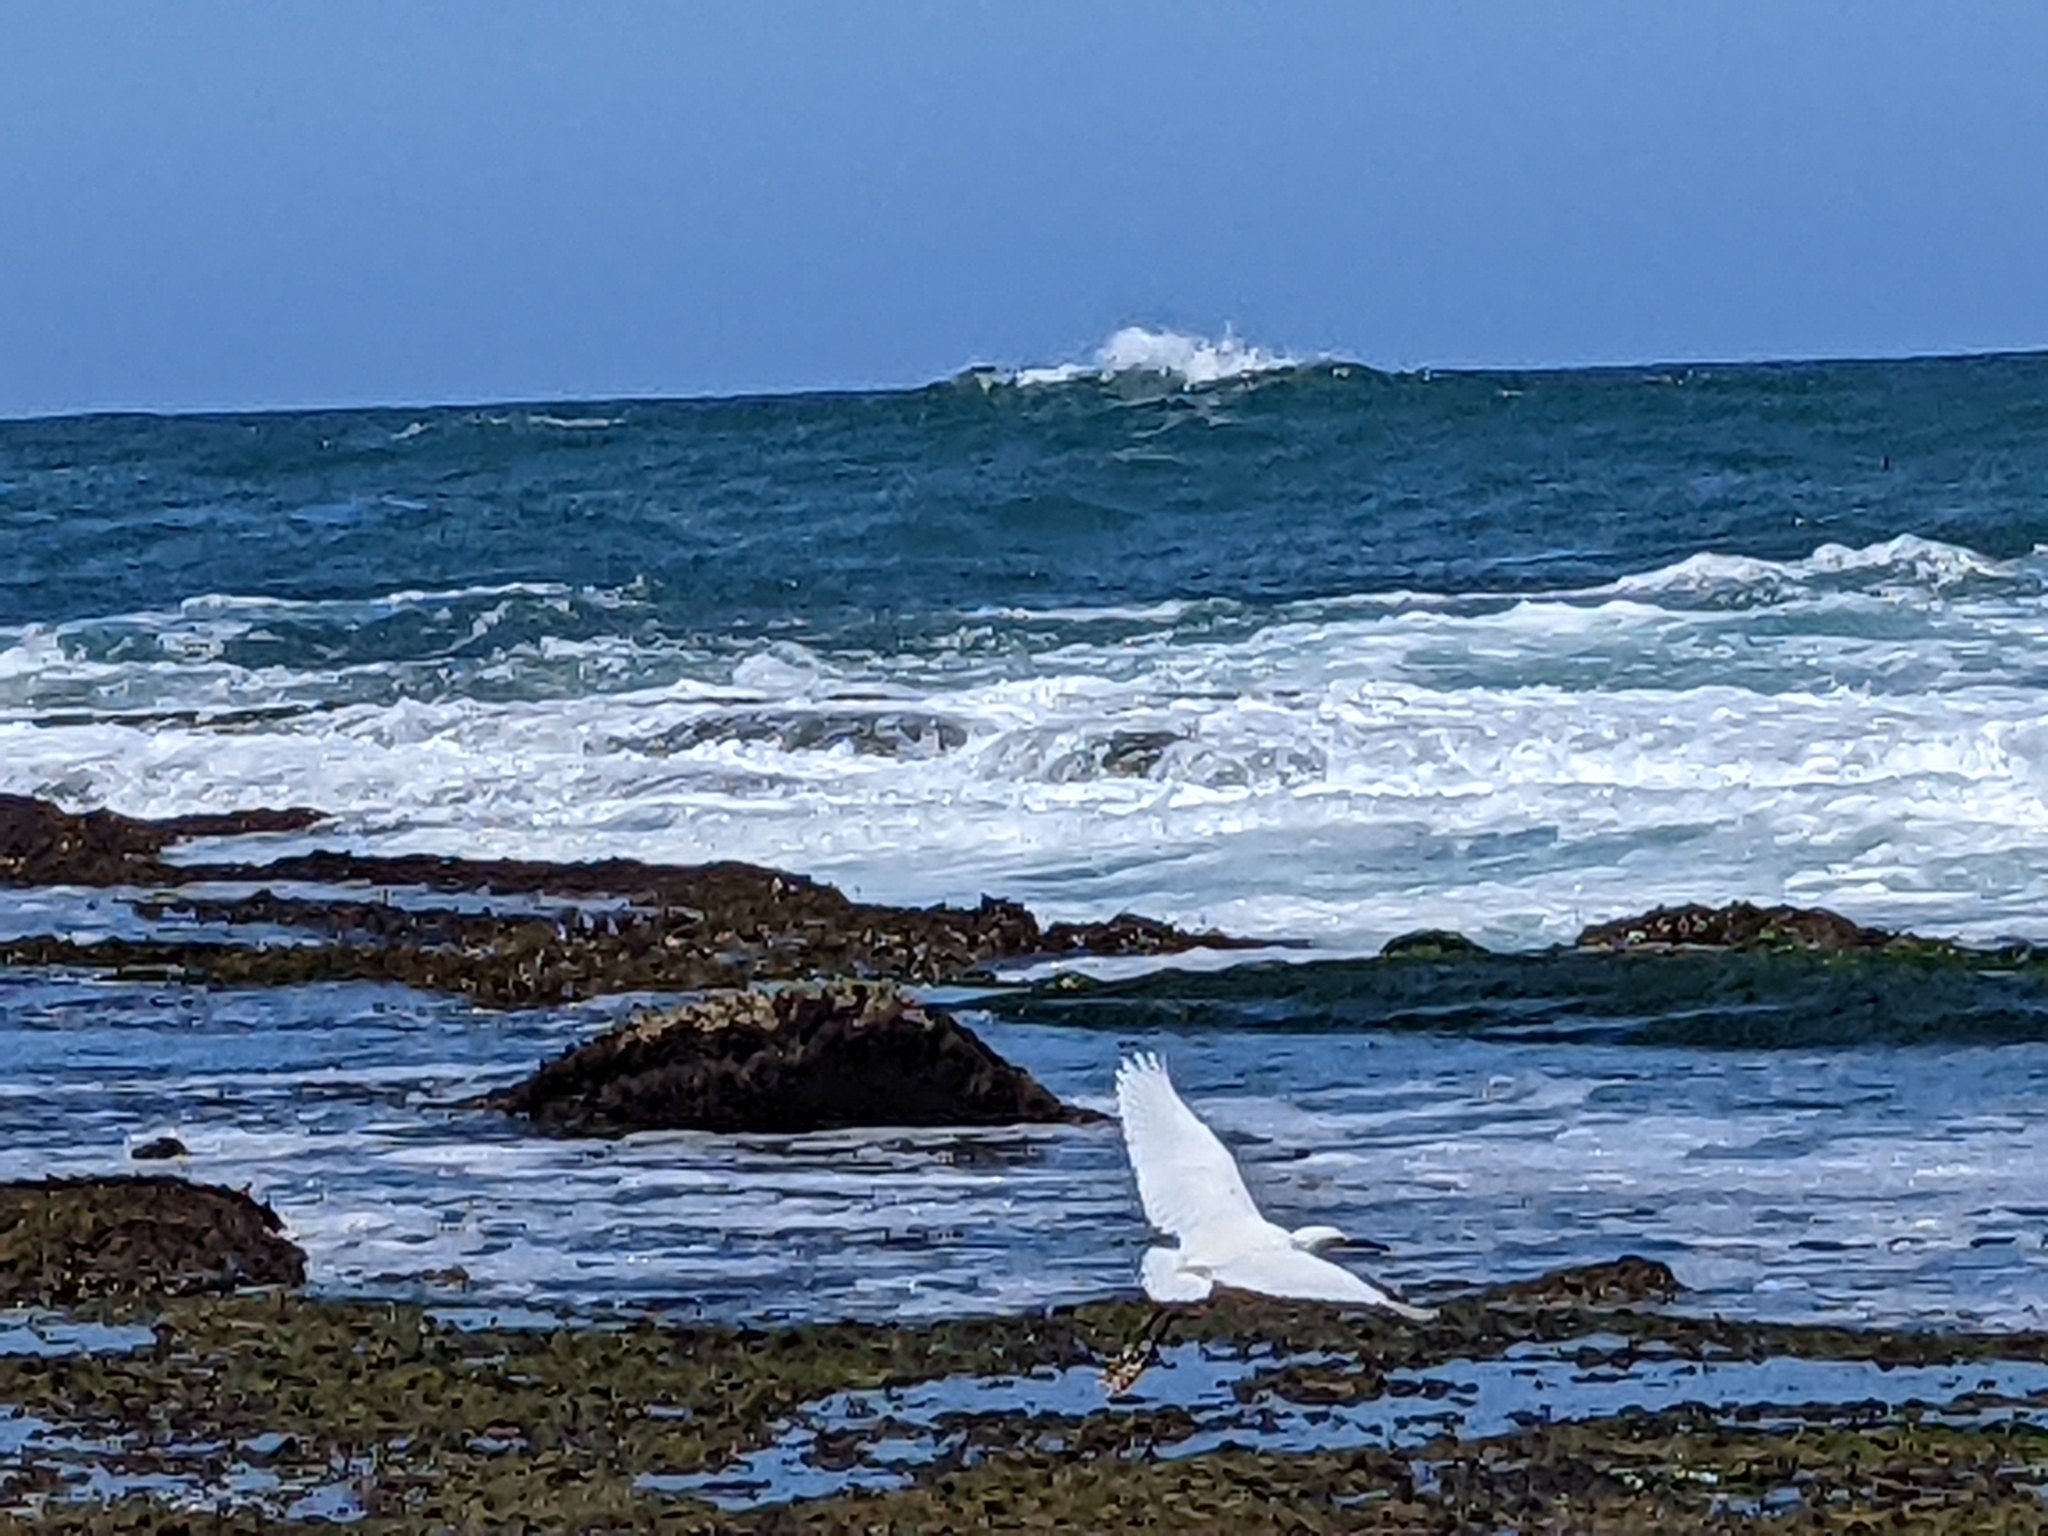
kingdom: Animalia
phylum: Chordata
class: Aves
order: Pelecaniformes
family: Ardeidae
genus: Egretta
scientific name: Egretta thula
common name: Snowy egret
